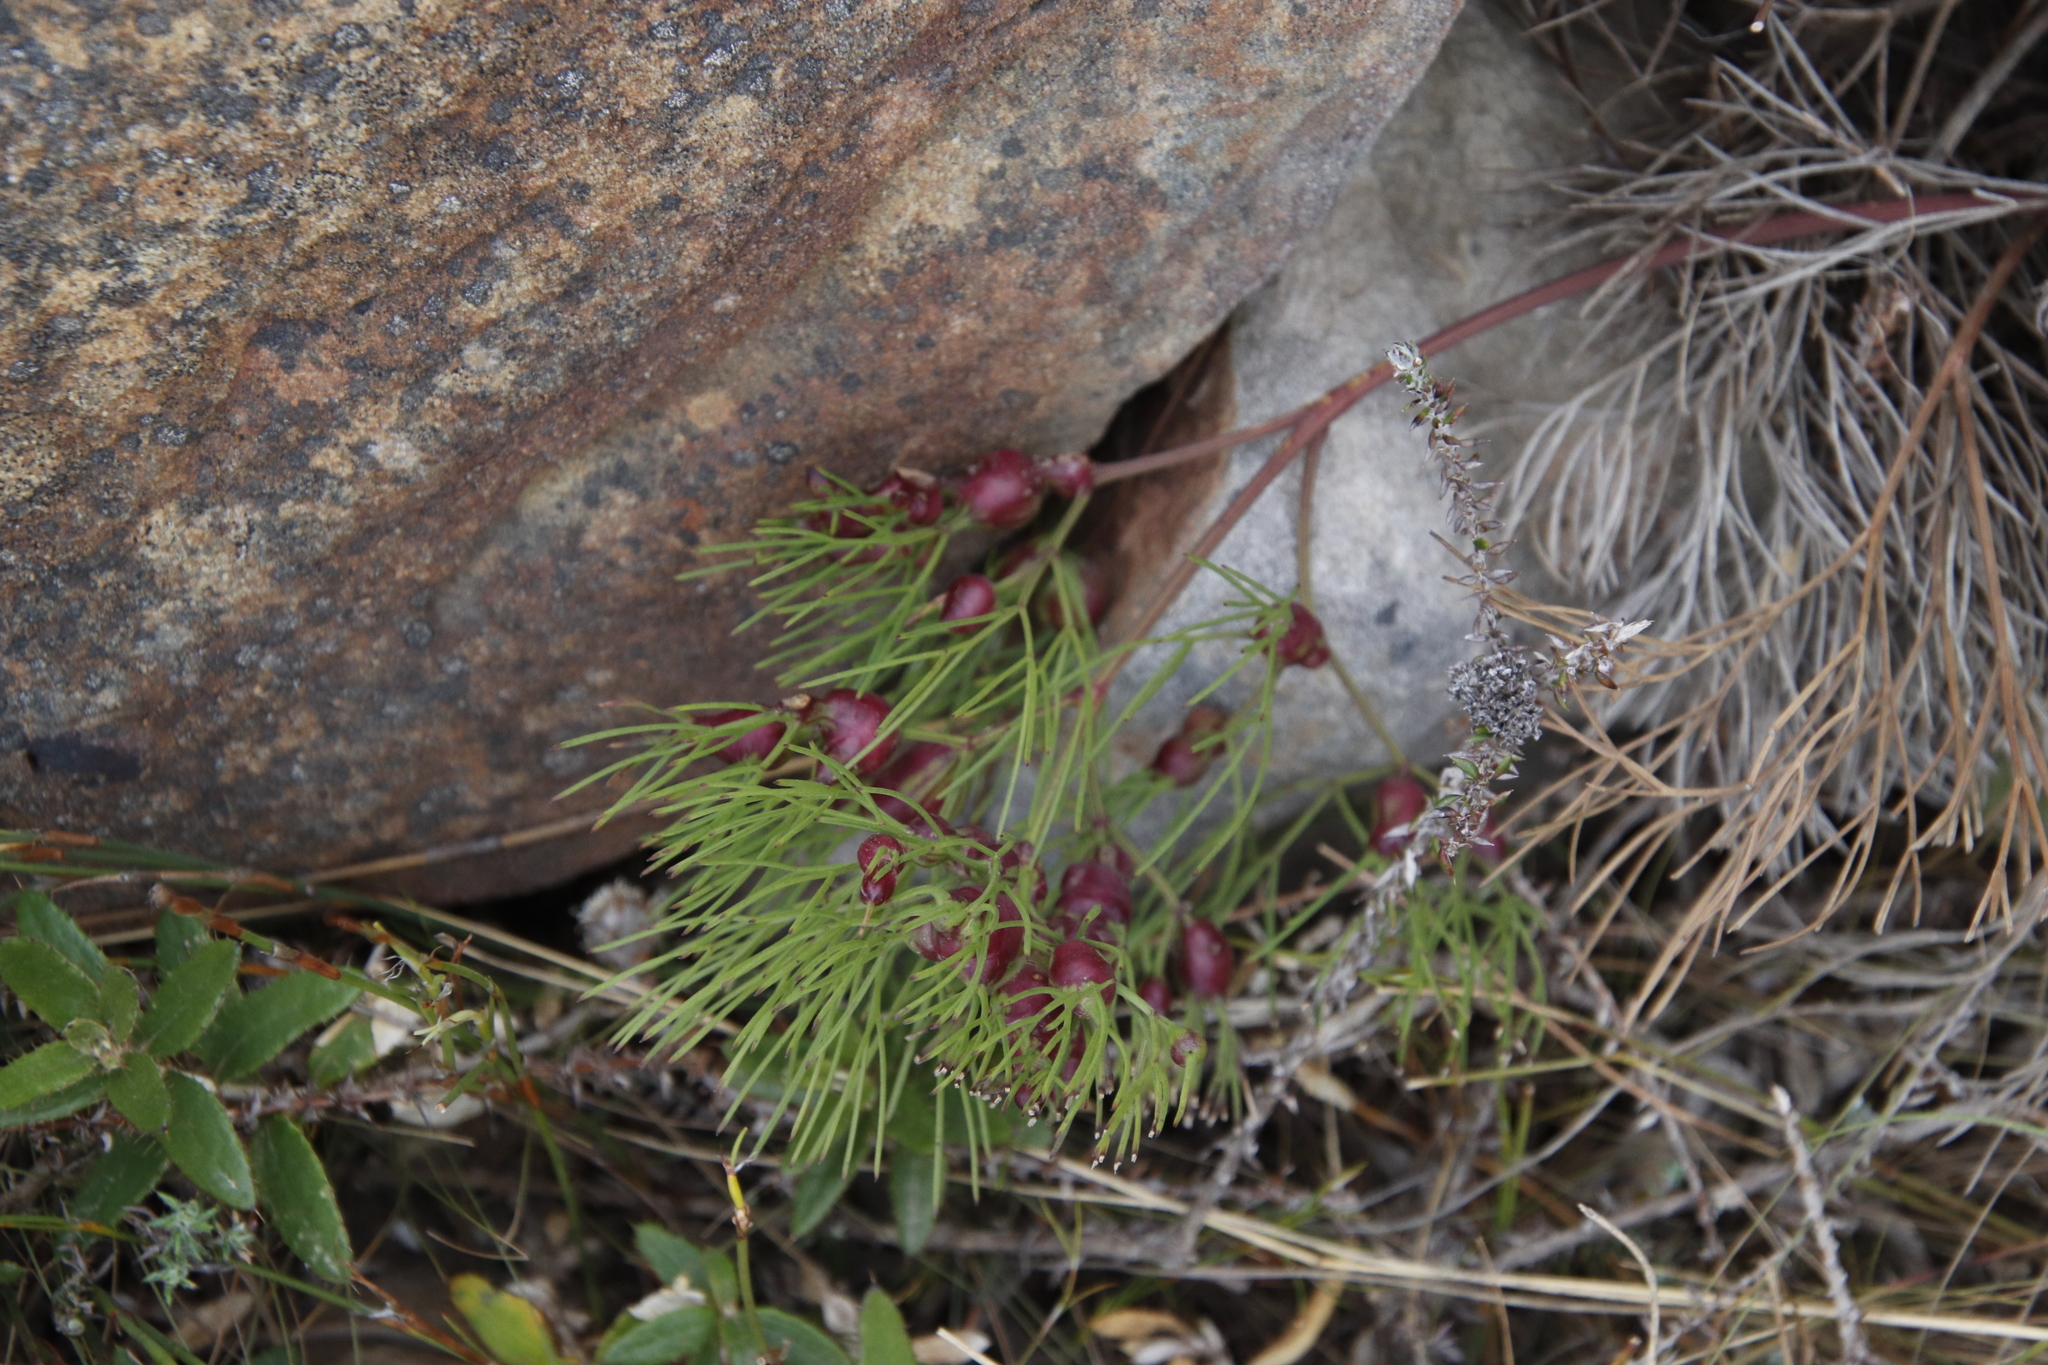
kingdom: Plantae
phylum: Tracheophyta
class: Magnoliopsida
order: Apiales
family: Apiaceae
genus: Nanobubon
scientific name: Nanobubon strictum
